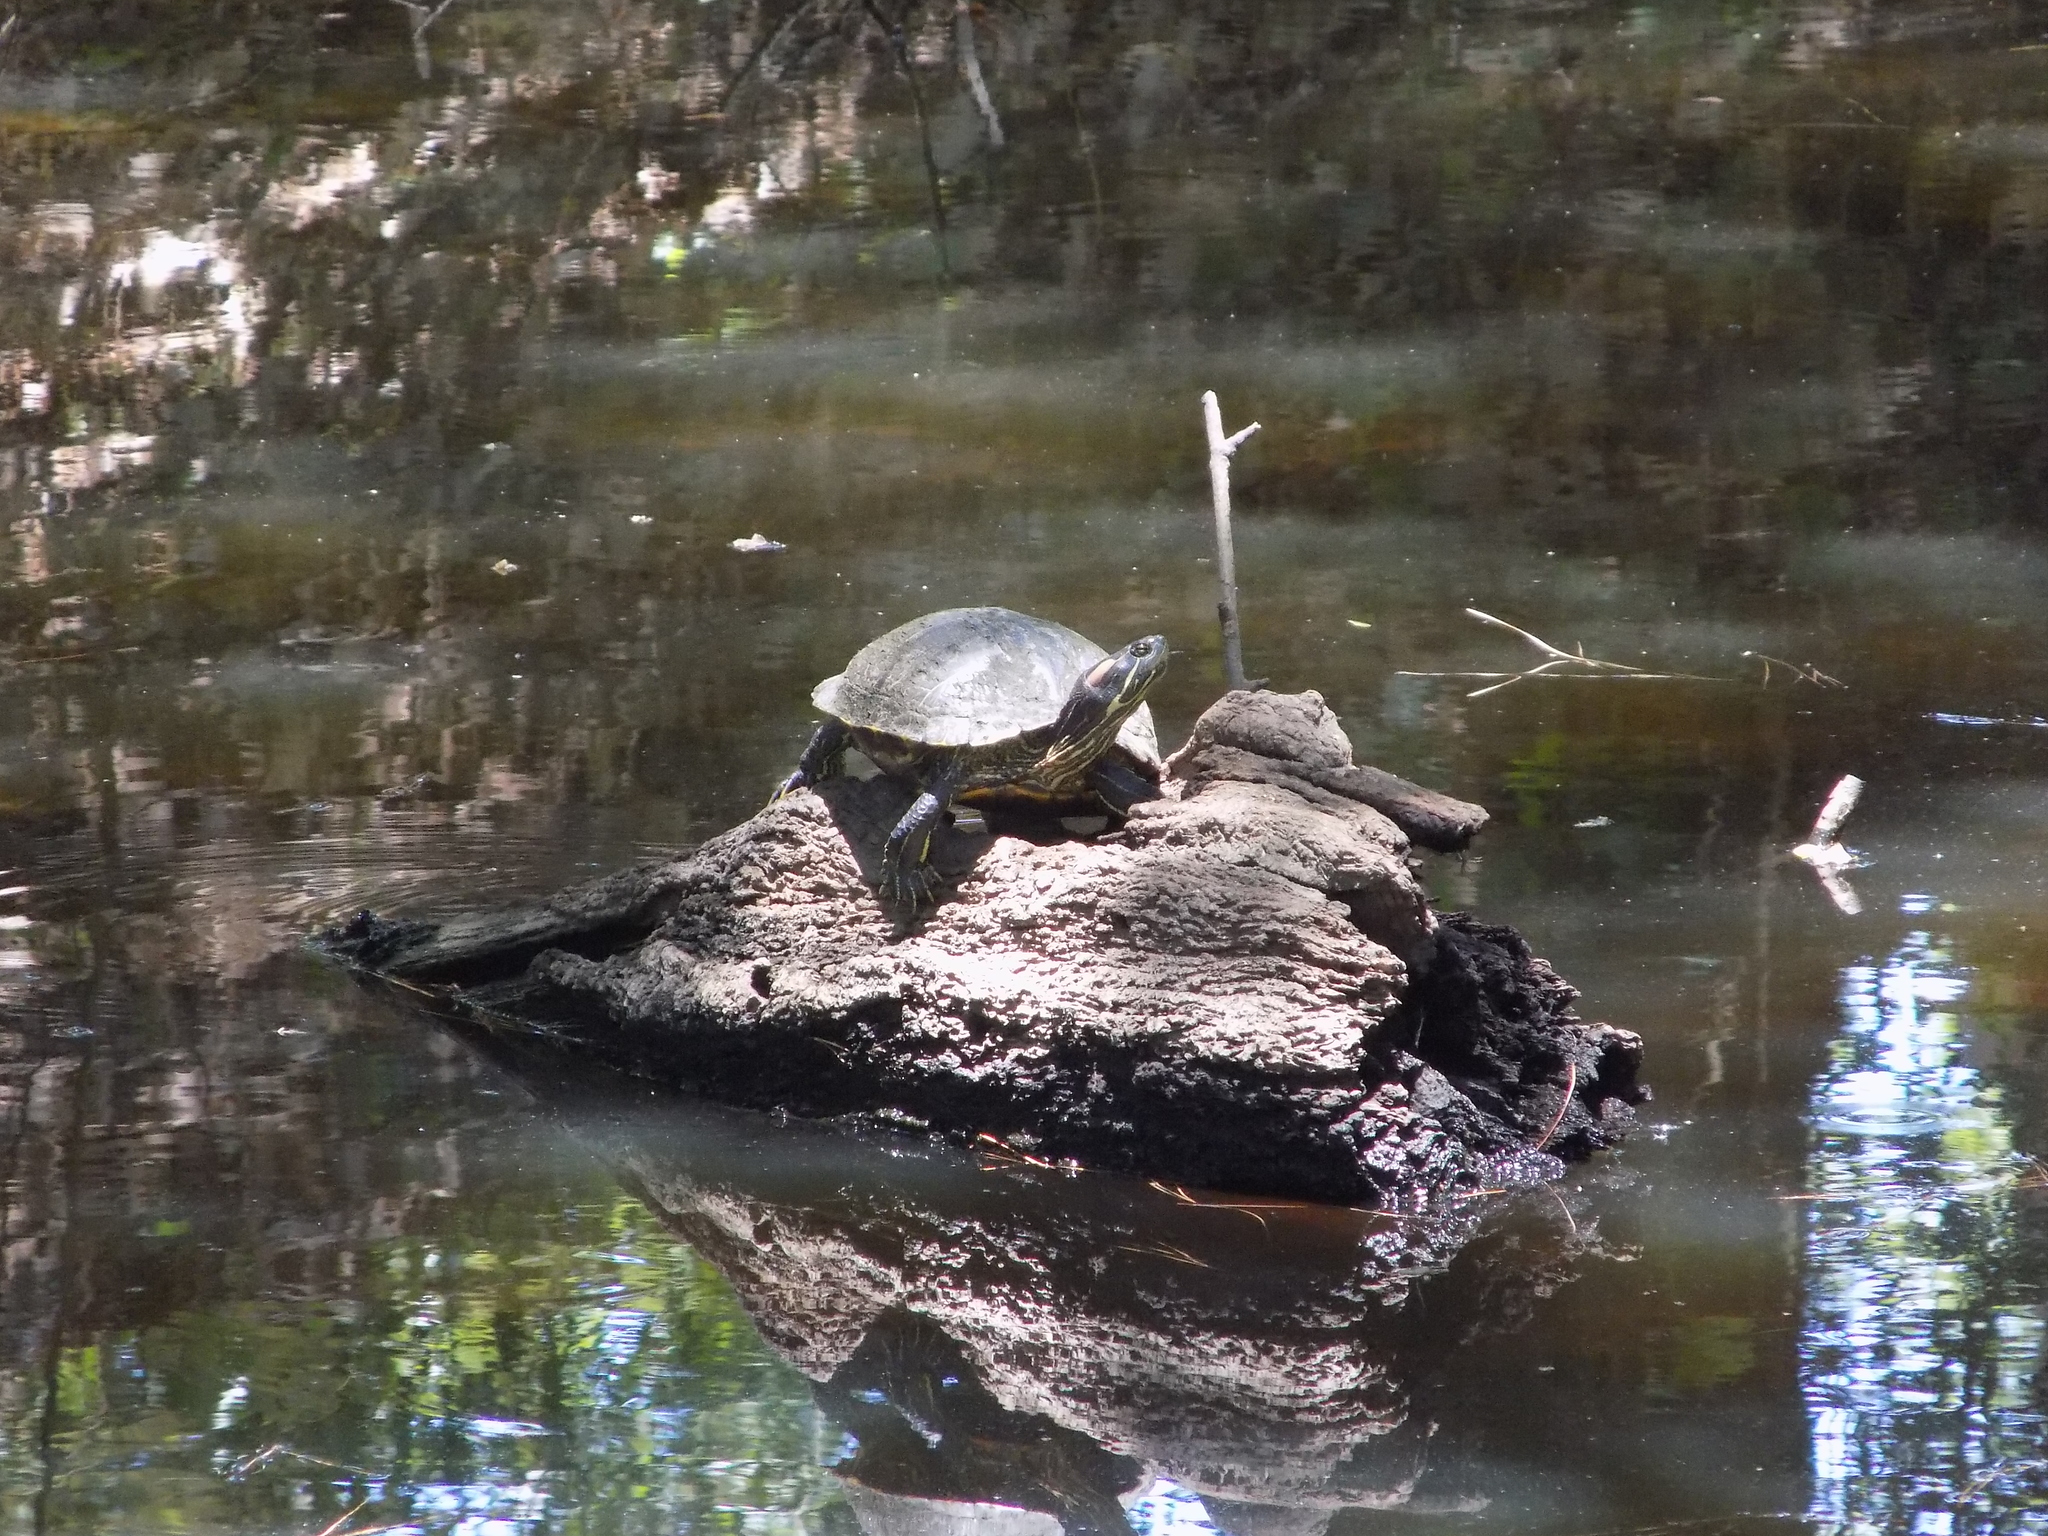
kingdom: Animalia
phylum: Chordata
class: Testudines
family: Emydidae
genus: Trachemys
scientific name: Trachemys scripta
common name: Slider
